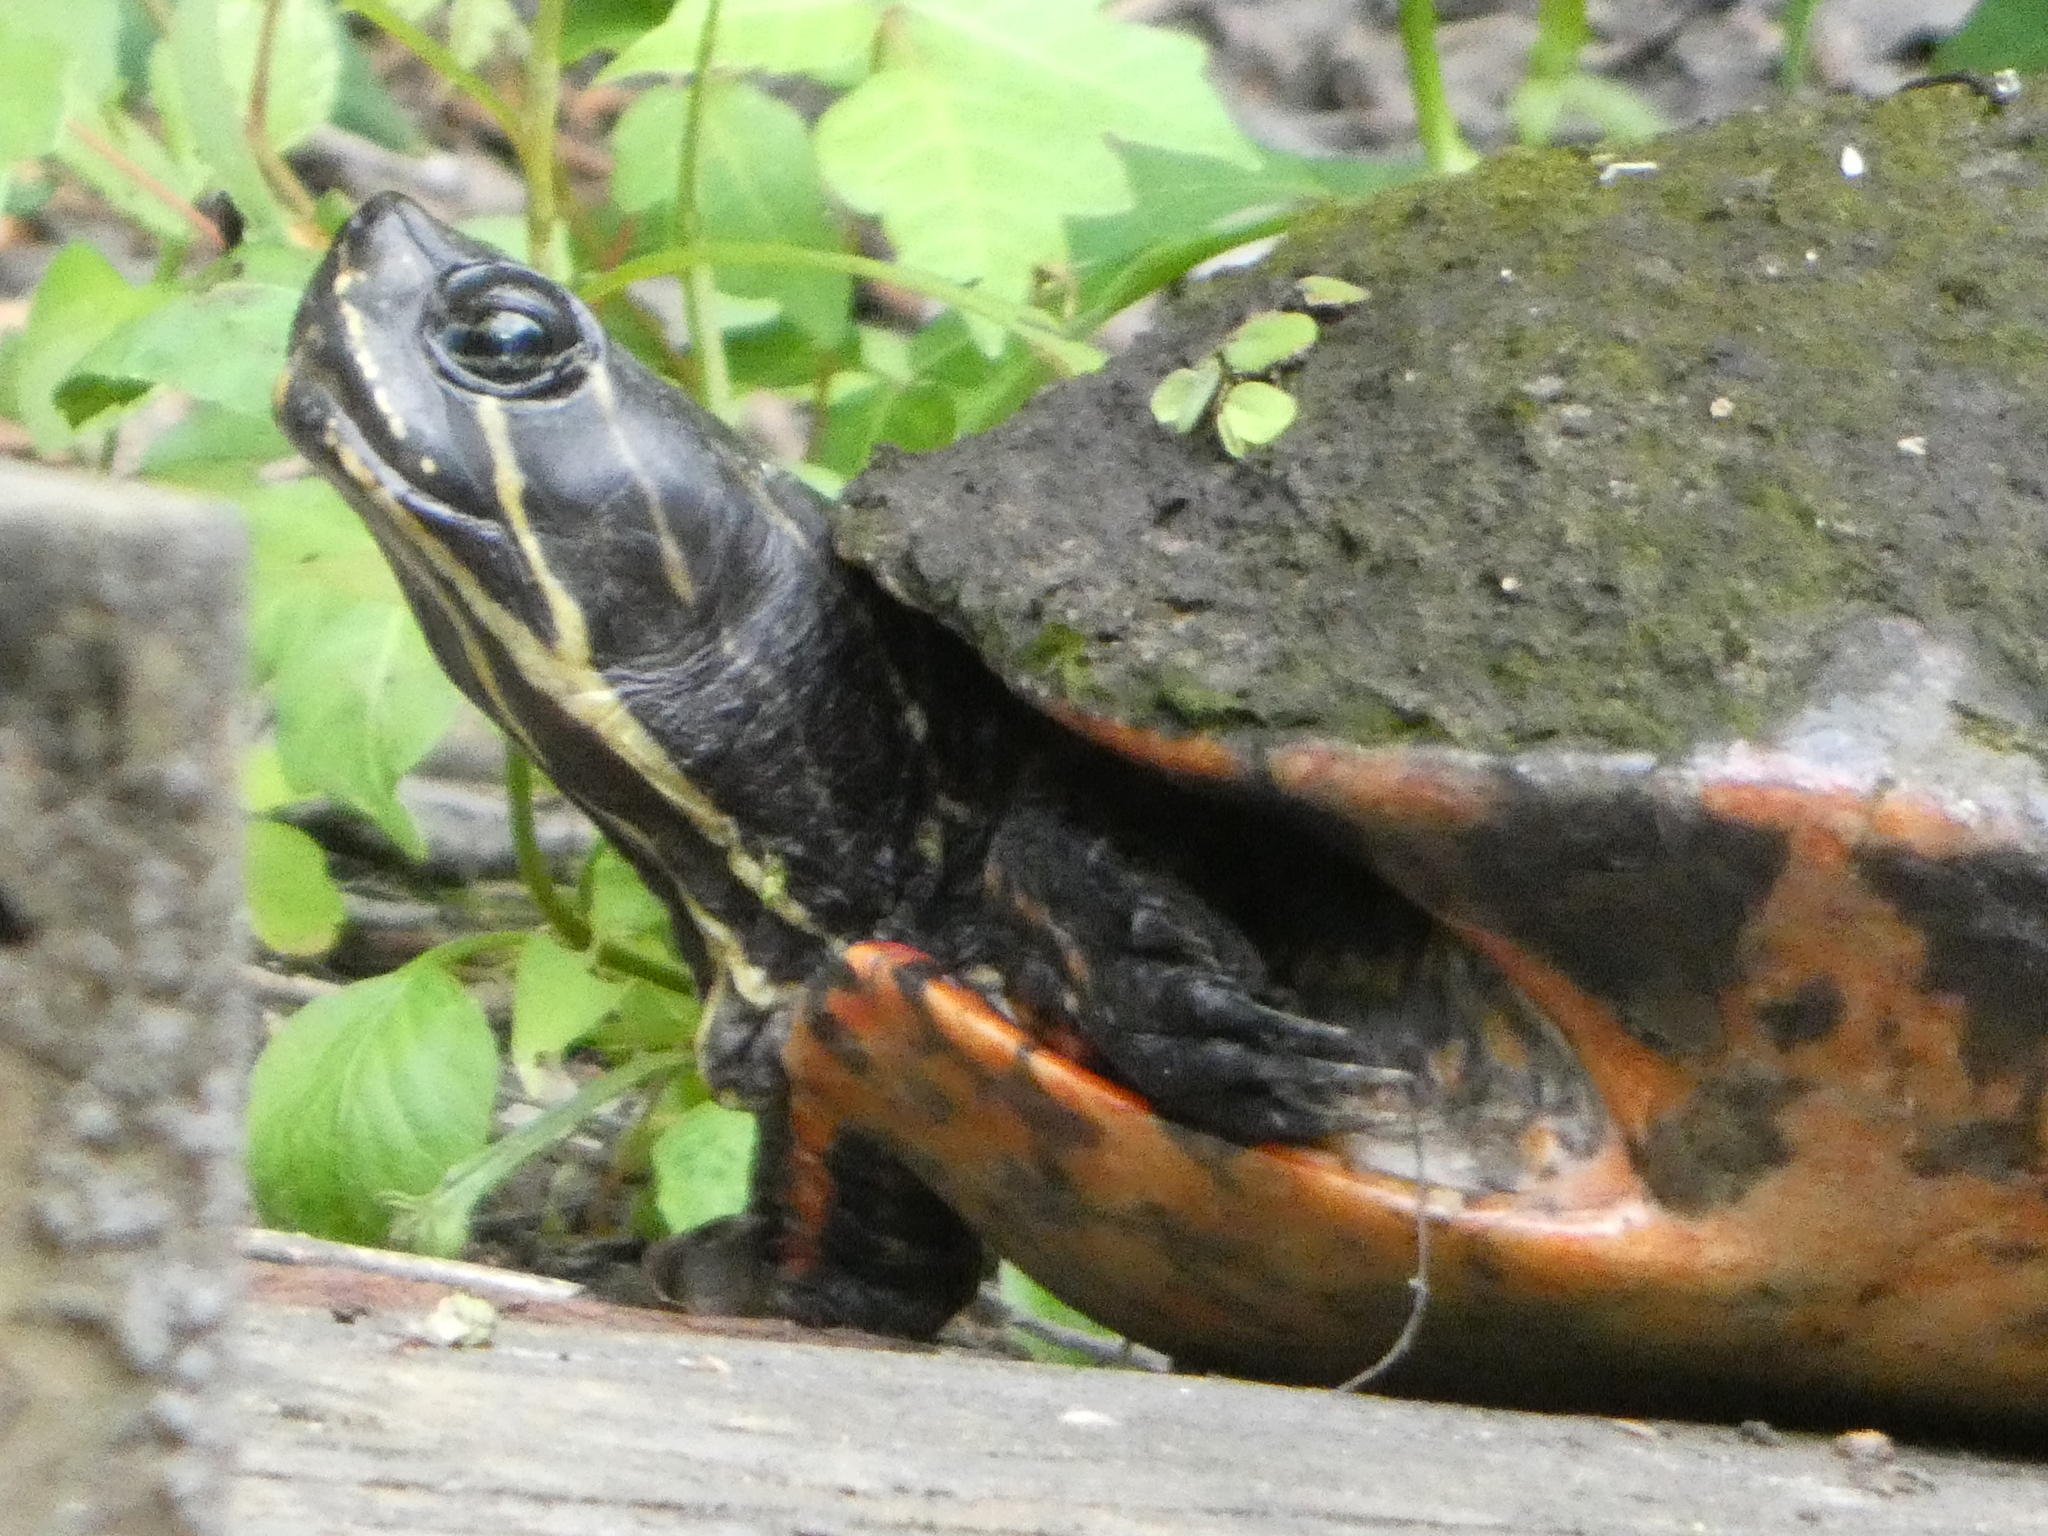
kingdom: Animalia
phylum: Chordata
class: Testudines
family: Emydidae
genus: Pseudemys
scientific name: Pseudemys nelsoni
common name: Florida red-bellied turtle
